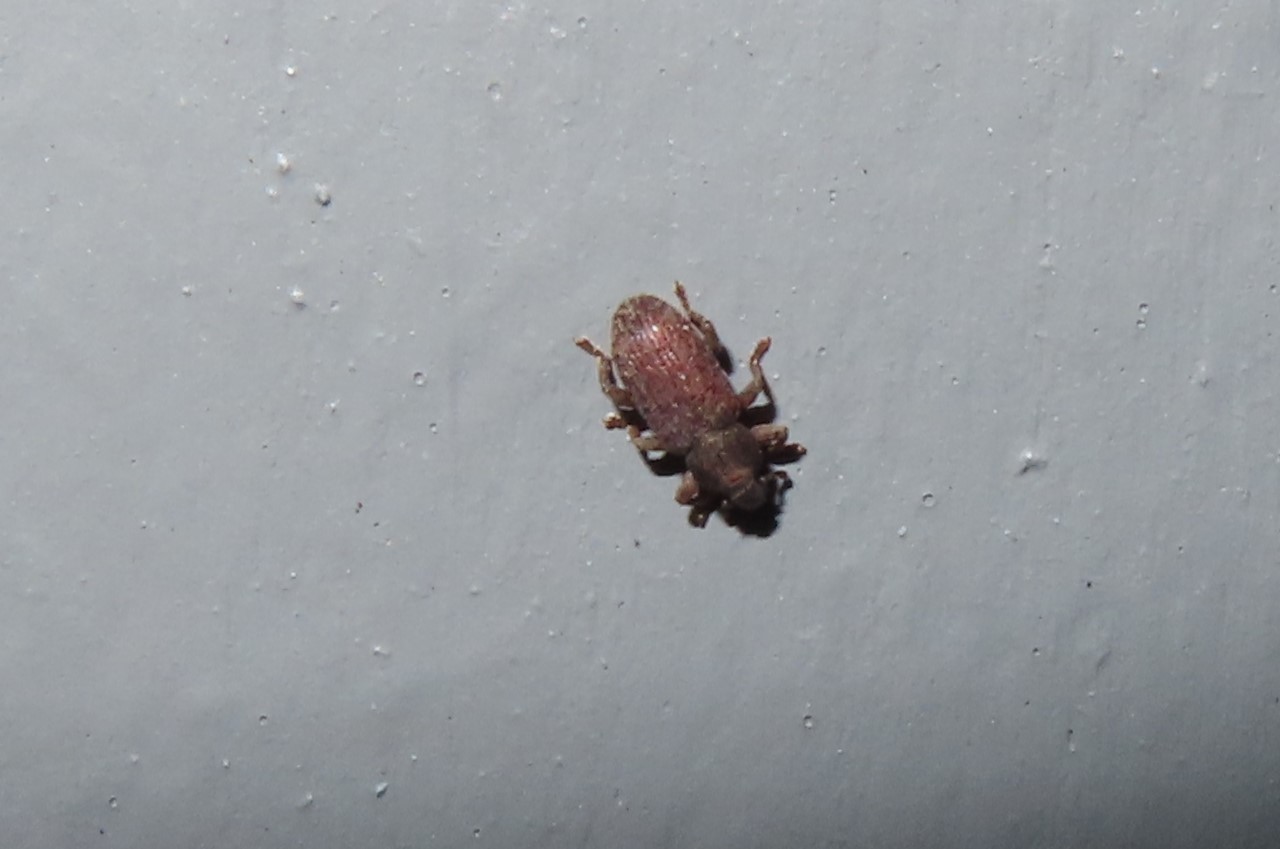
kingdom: Animalia
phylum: Arthropoda
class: Insecta
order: Coleoptera
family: Curculionidae
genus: Hormops
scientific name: Hormops abducens
